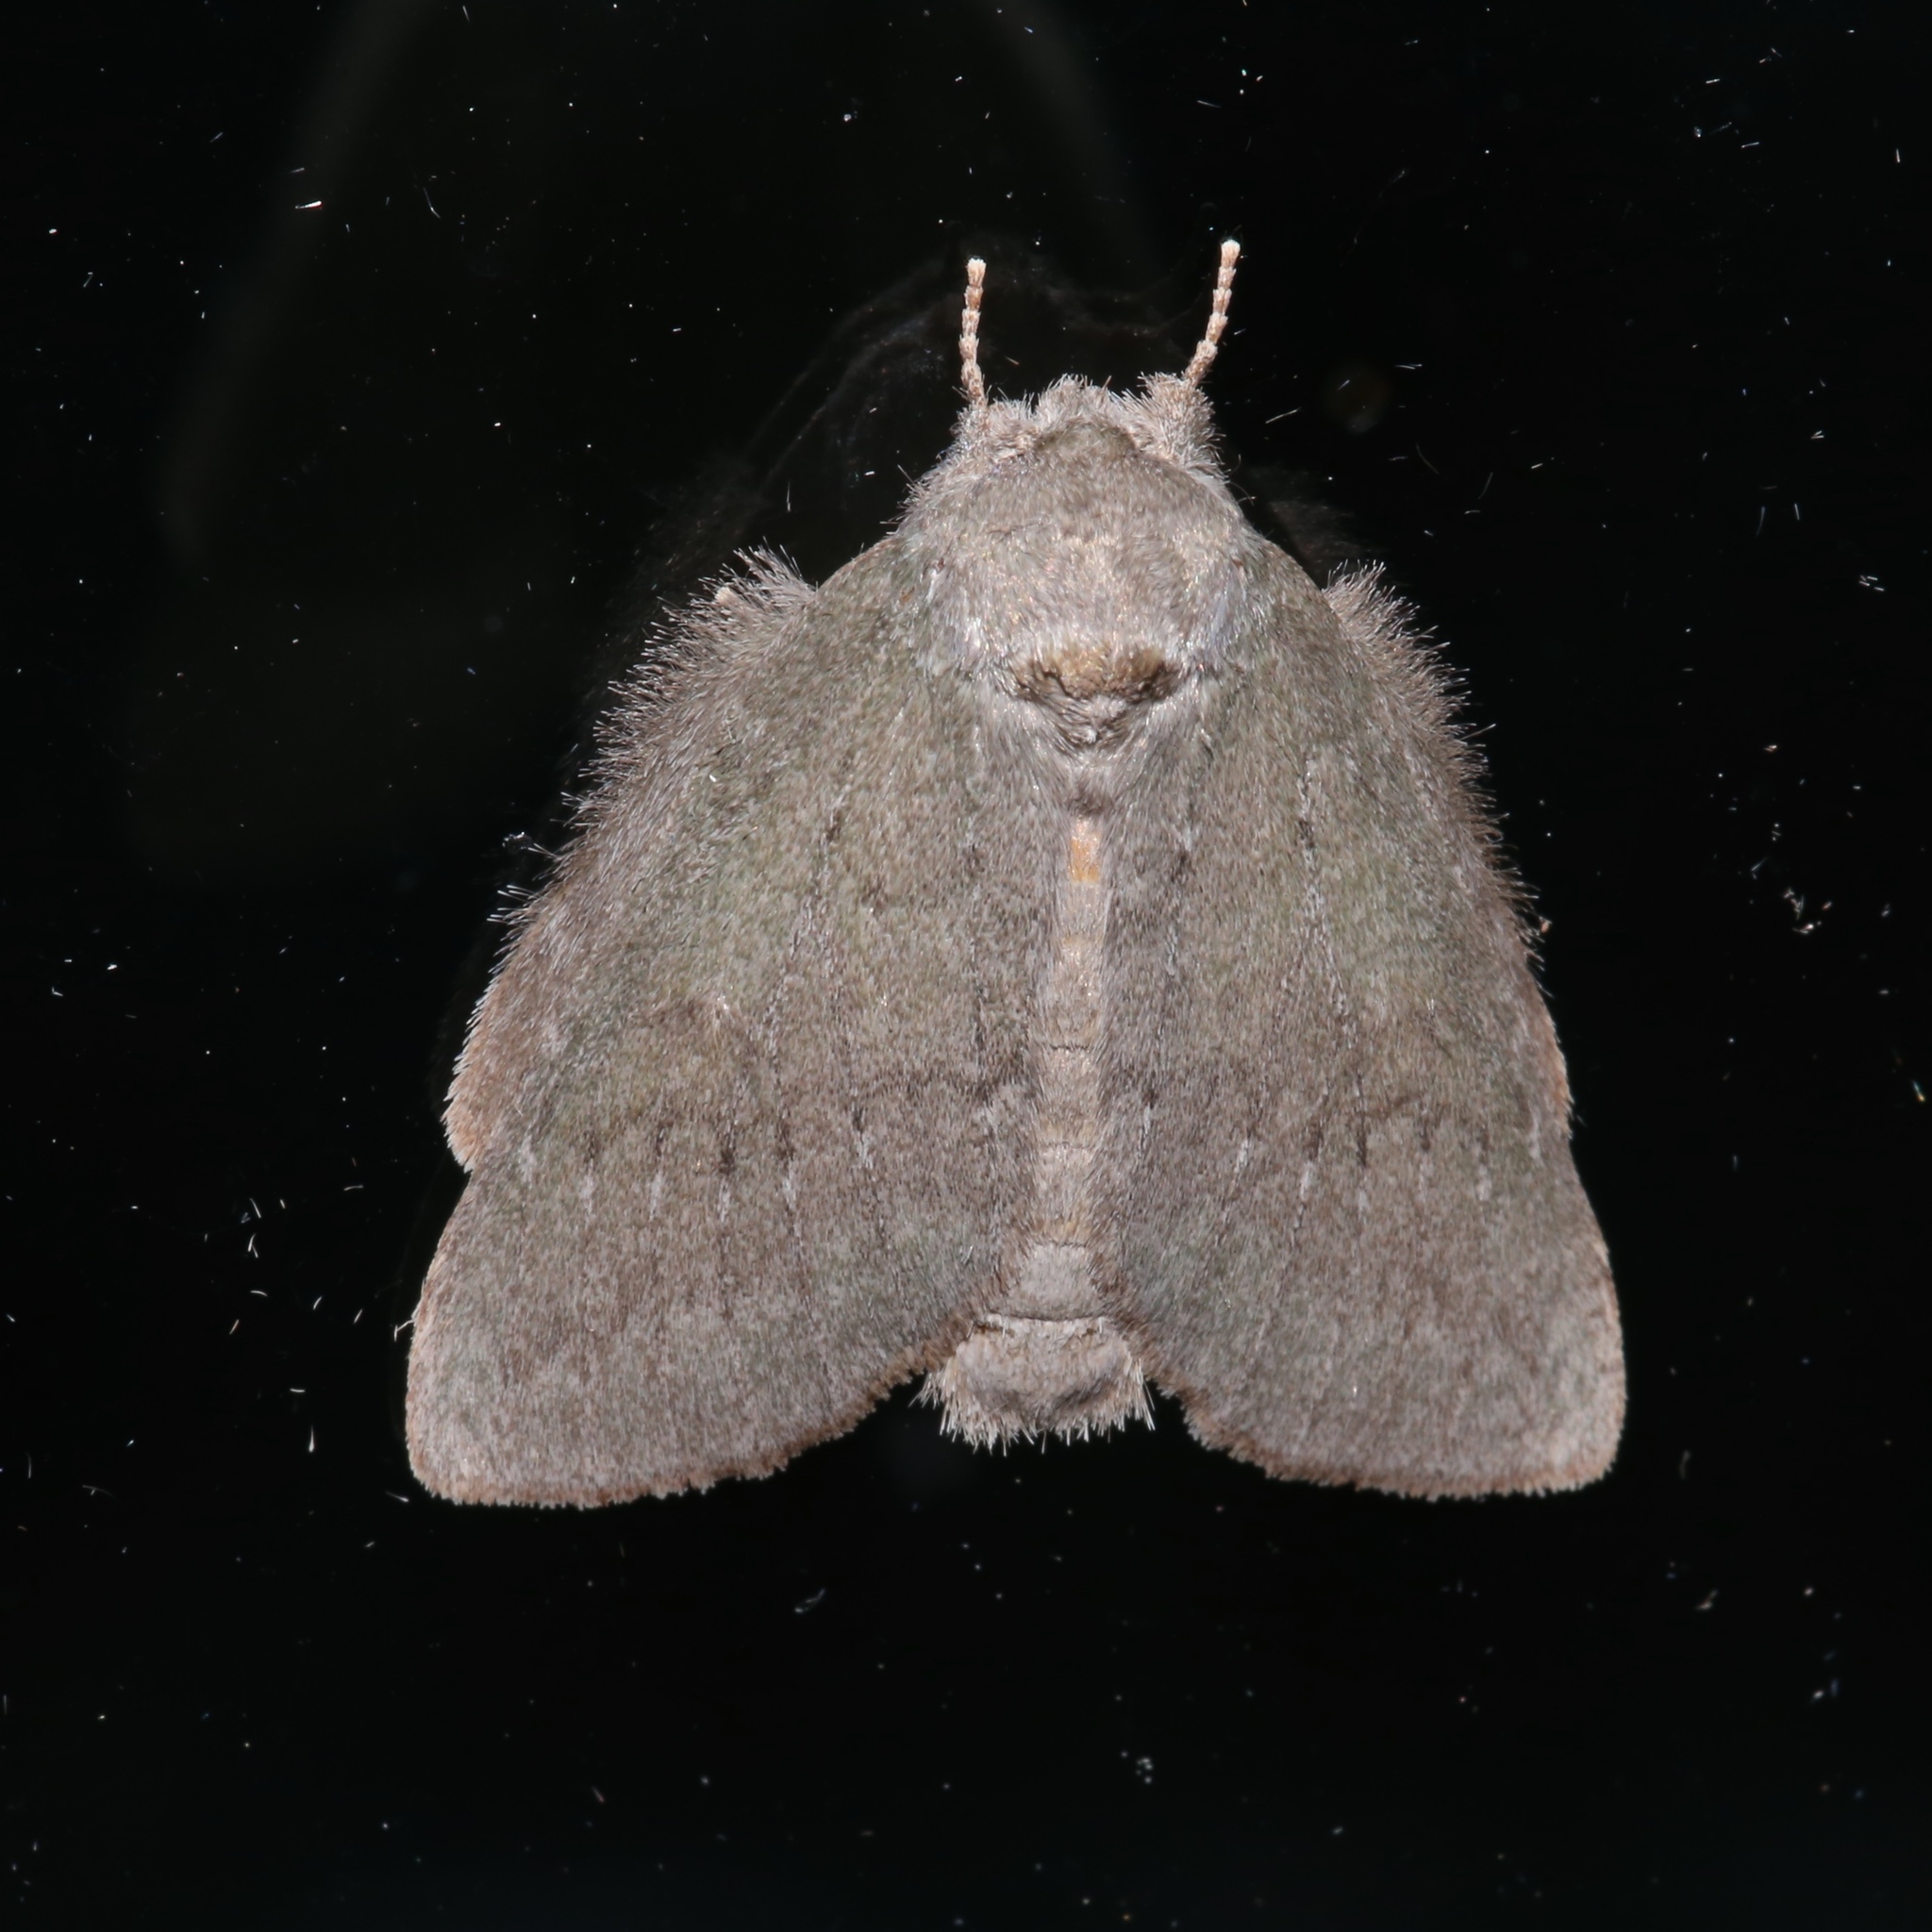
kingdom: Animalia
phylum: Arthropoda
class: Insecta
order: Lepidoptera
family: Notodontidae
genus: Misogada
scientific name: Misogada unicolor
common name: Drab prominent
